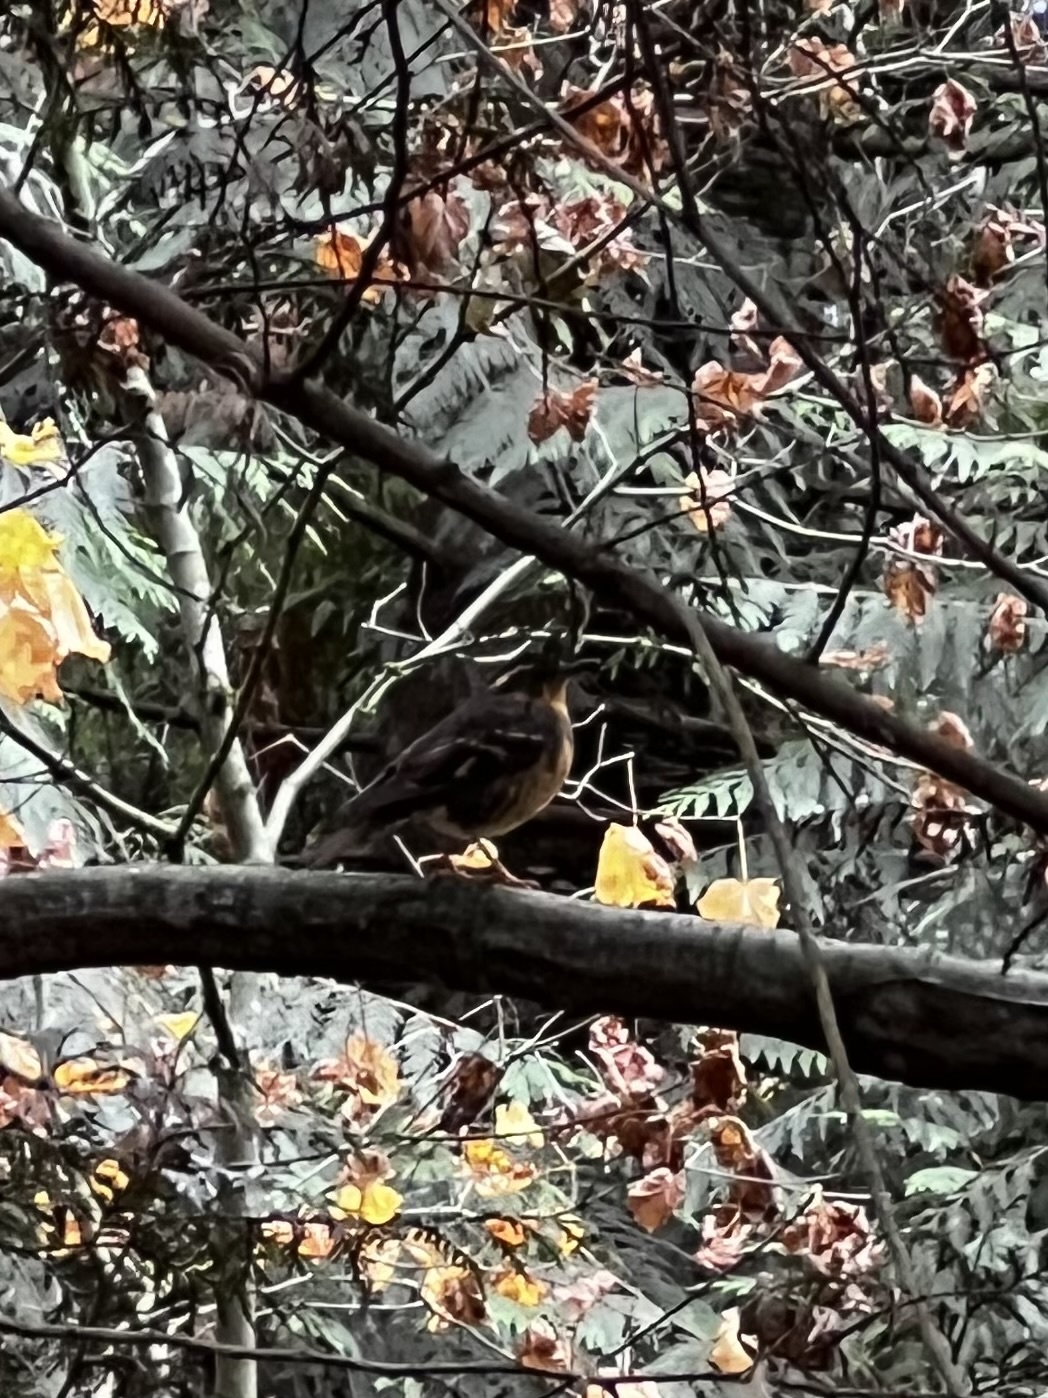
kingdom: Animalia
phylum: Chordata
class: Aves
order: Passeriformes
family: Turdidae
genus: Ixoreus
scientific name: Ixoreus naevius
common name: Varied thrush
